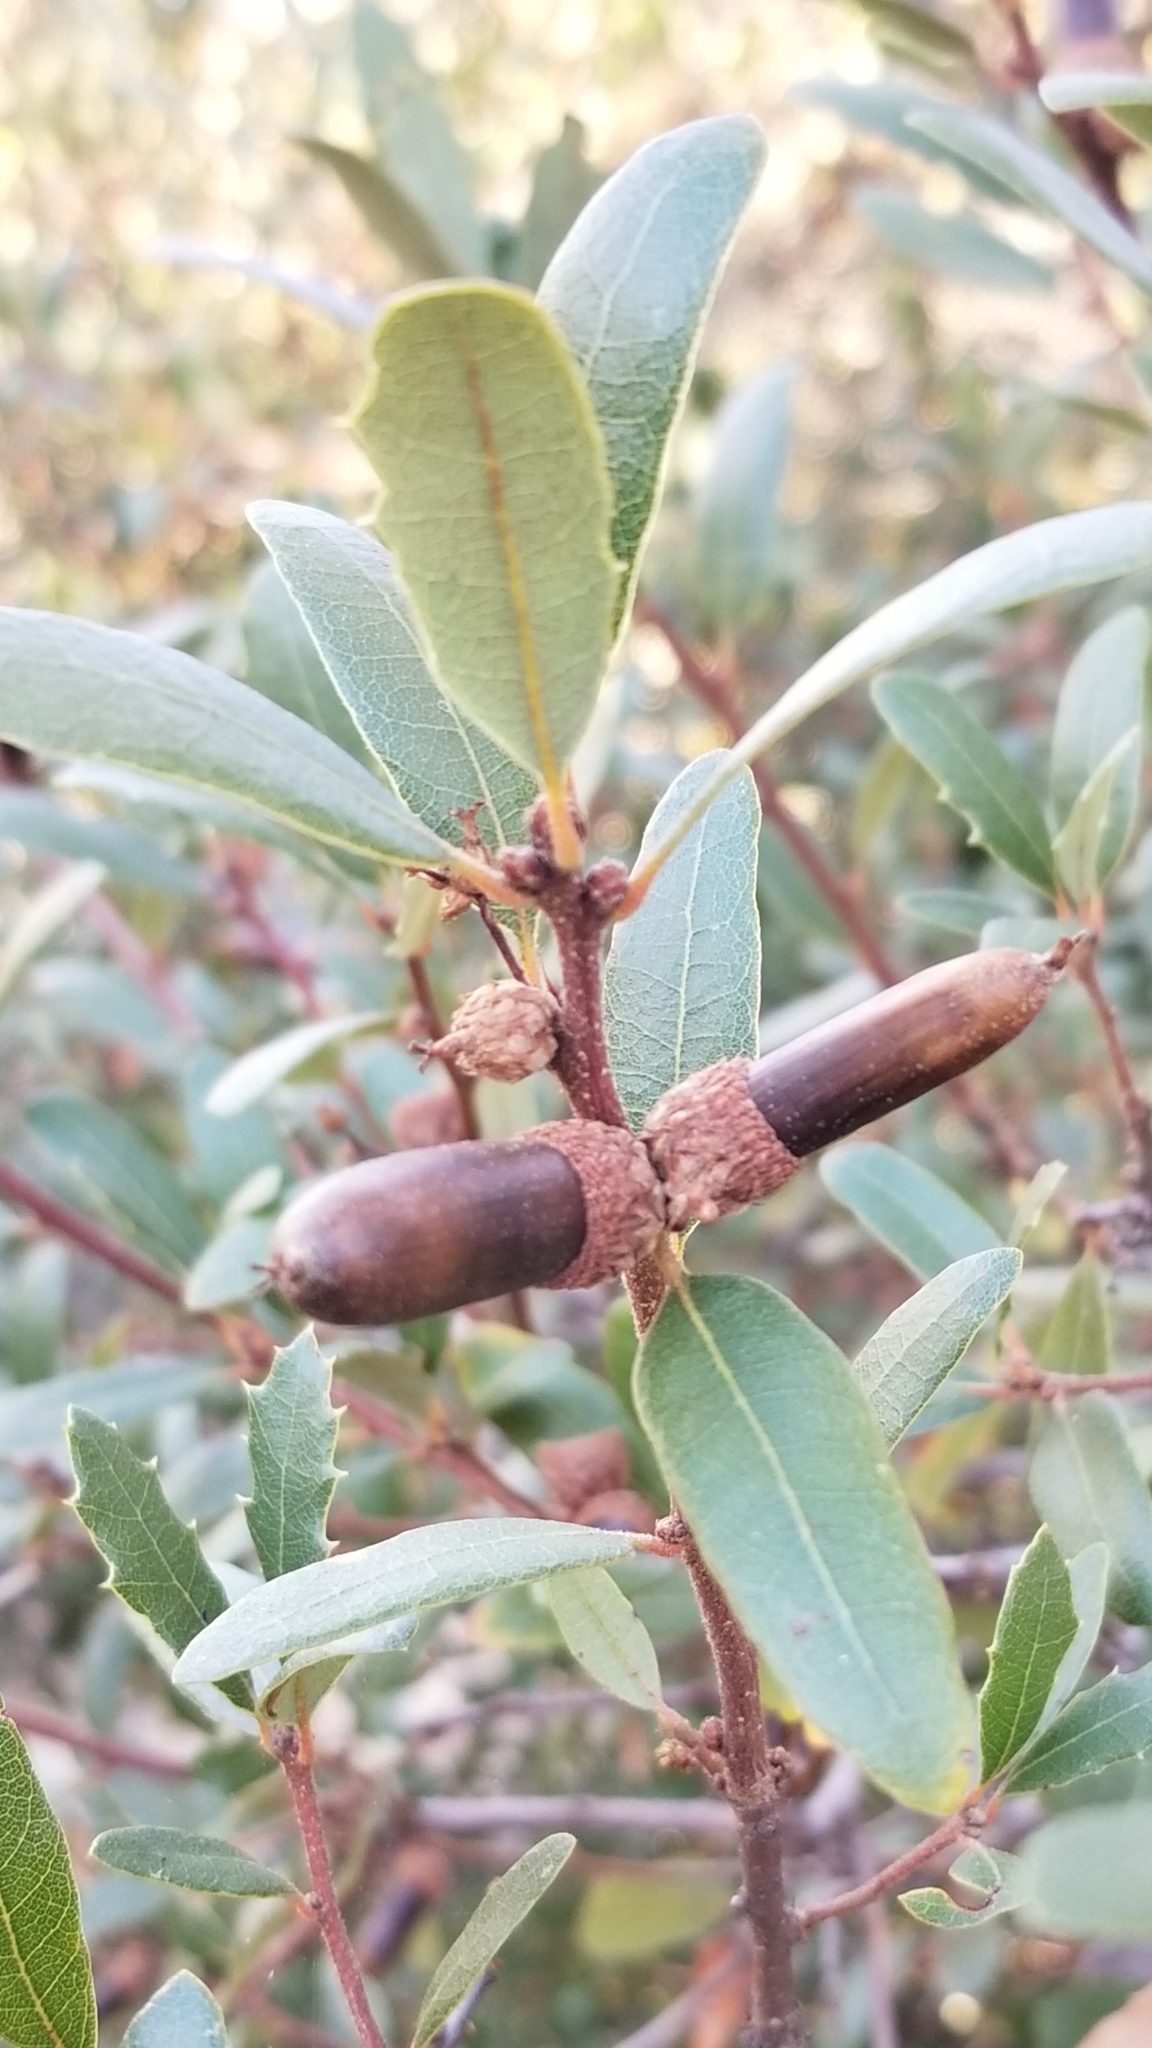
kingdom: Plantae
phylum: Tracheophyta
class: Magnoliopsida
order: Fagales
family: Fagaceae
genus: Quercus
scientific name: Quercus berberidifolia
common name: California scrub oak
